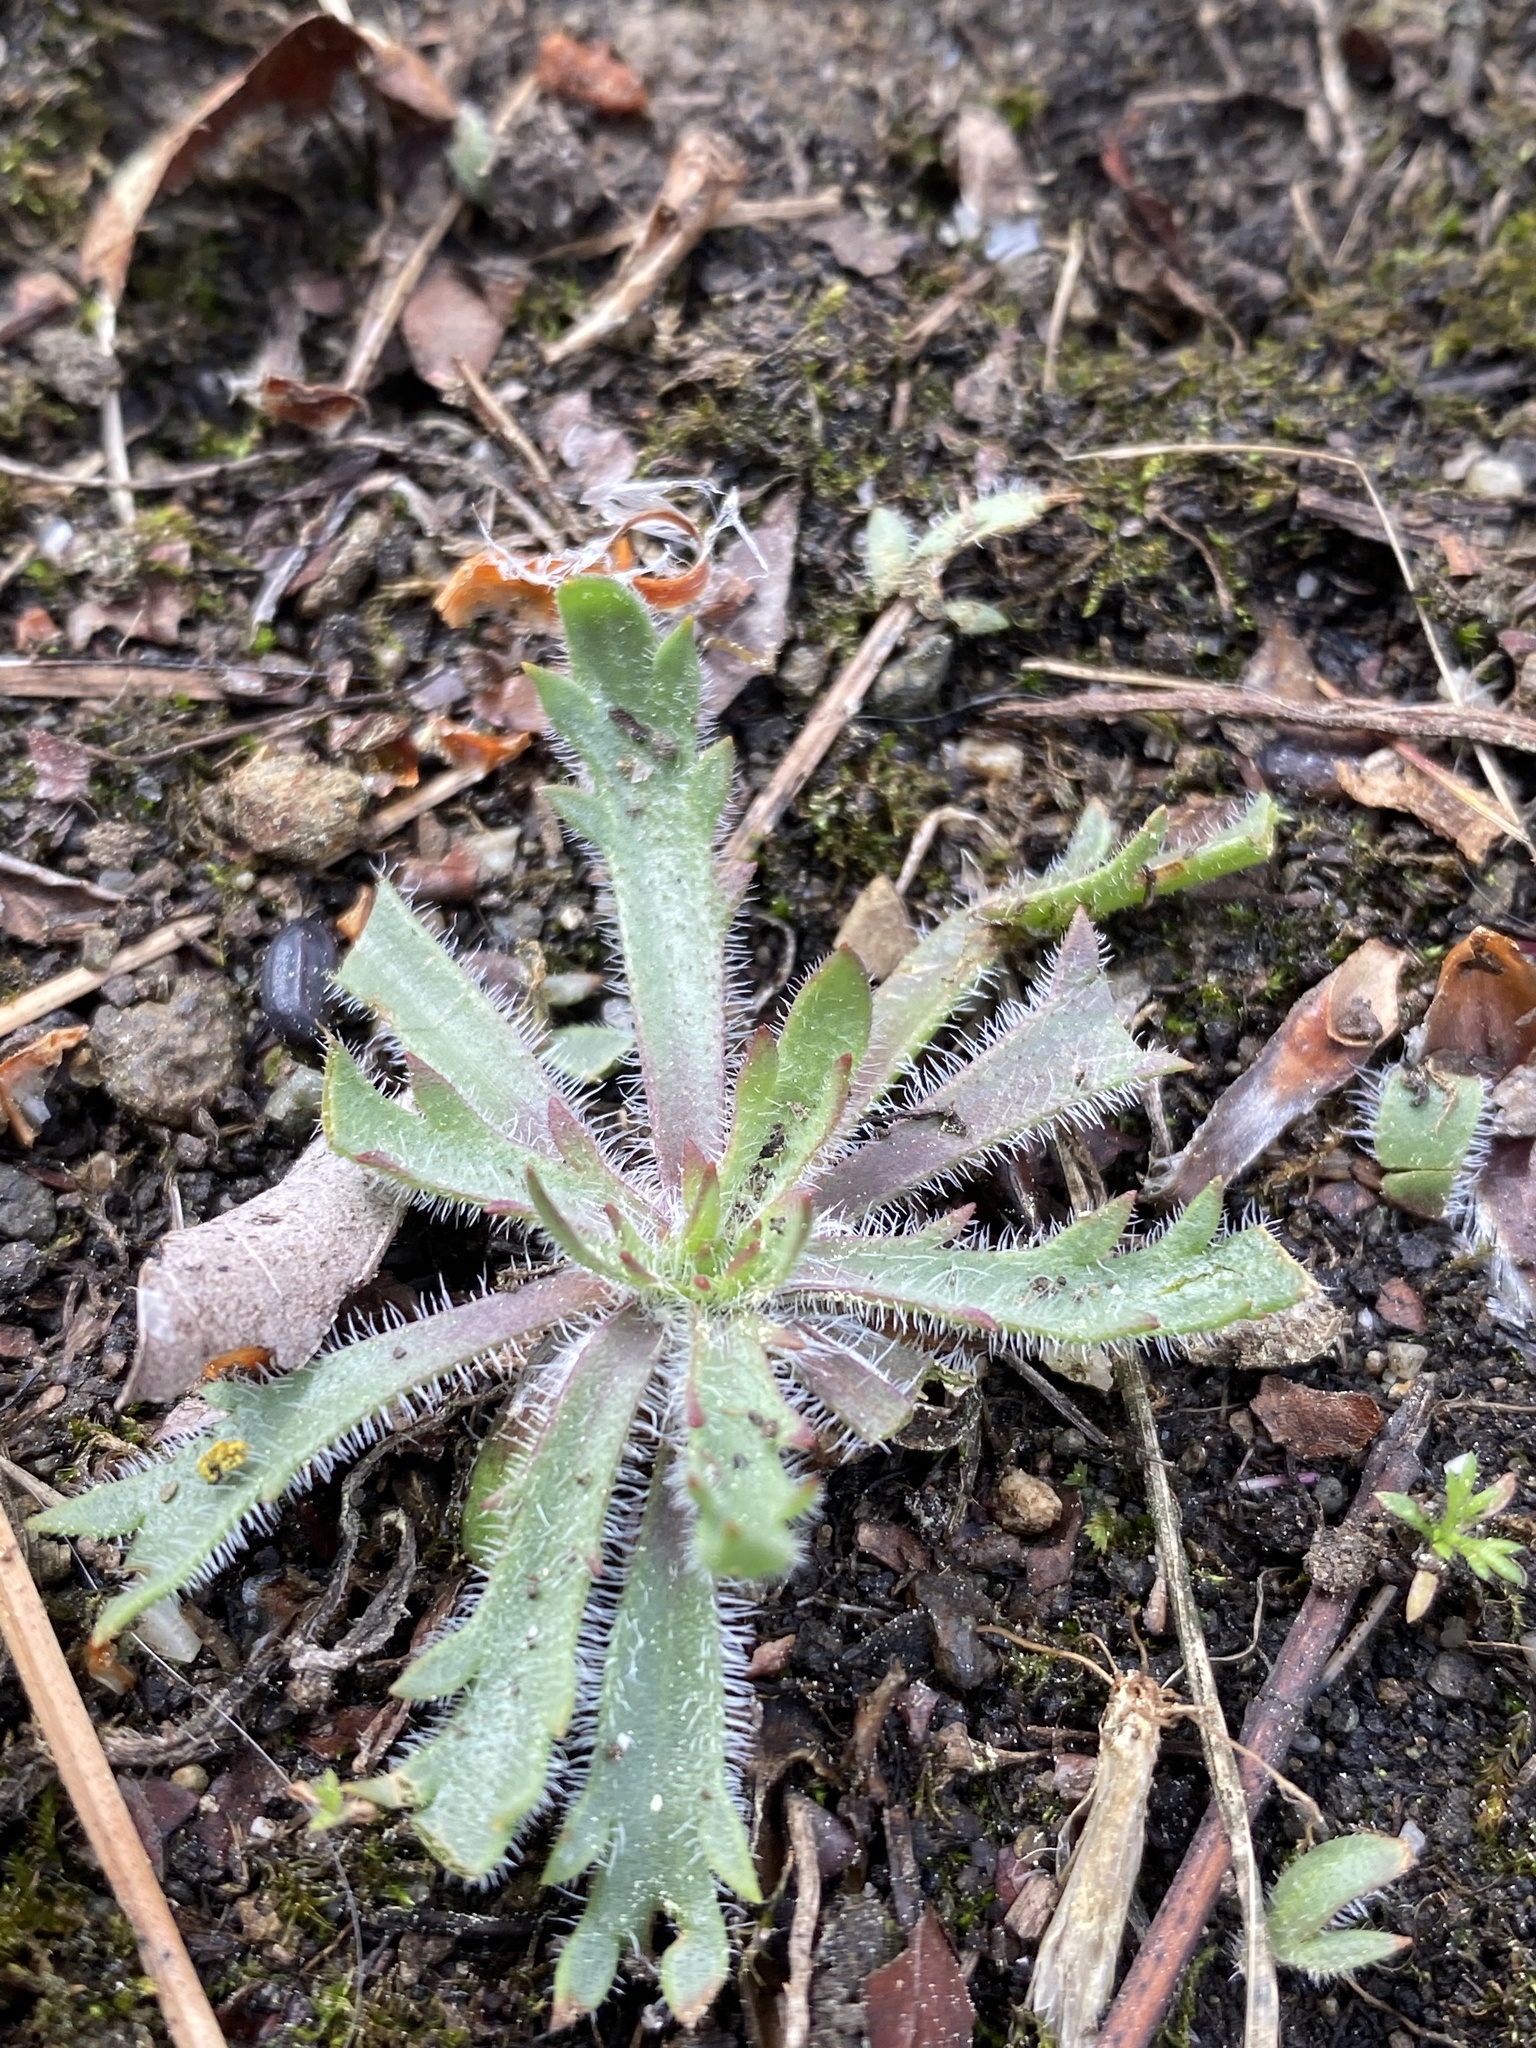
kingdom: Plantae
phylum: Tracheophyta
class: Magnoliopsida
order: Lamiales
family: Plantaginaceae
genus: Plantago
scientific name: Plantago coronopus
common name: Buck's-horn plantain
